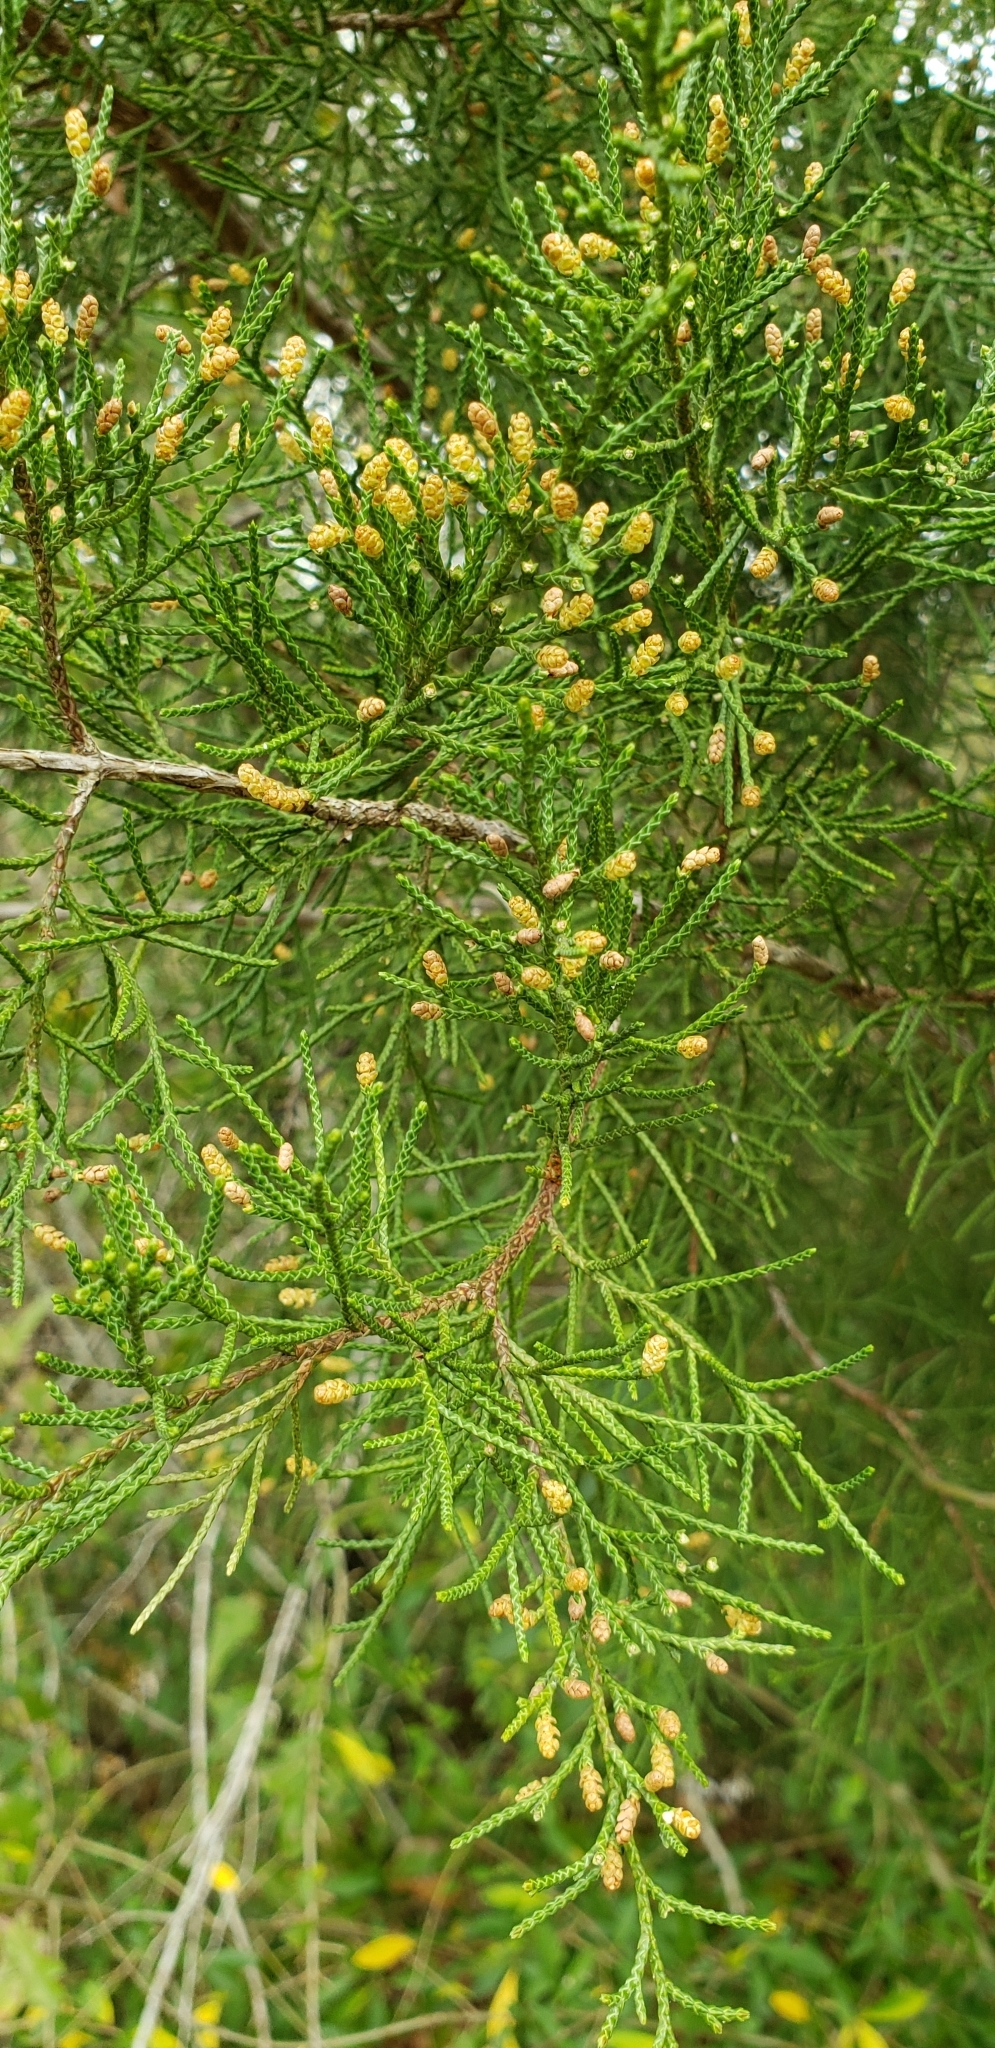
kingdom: Plantae
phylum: Tracheophyta
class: Pinopsida
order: Pinales
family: Cupressaceae
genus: Juniperus
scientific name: Juniperus virginiana
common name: Red juniper
